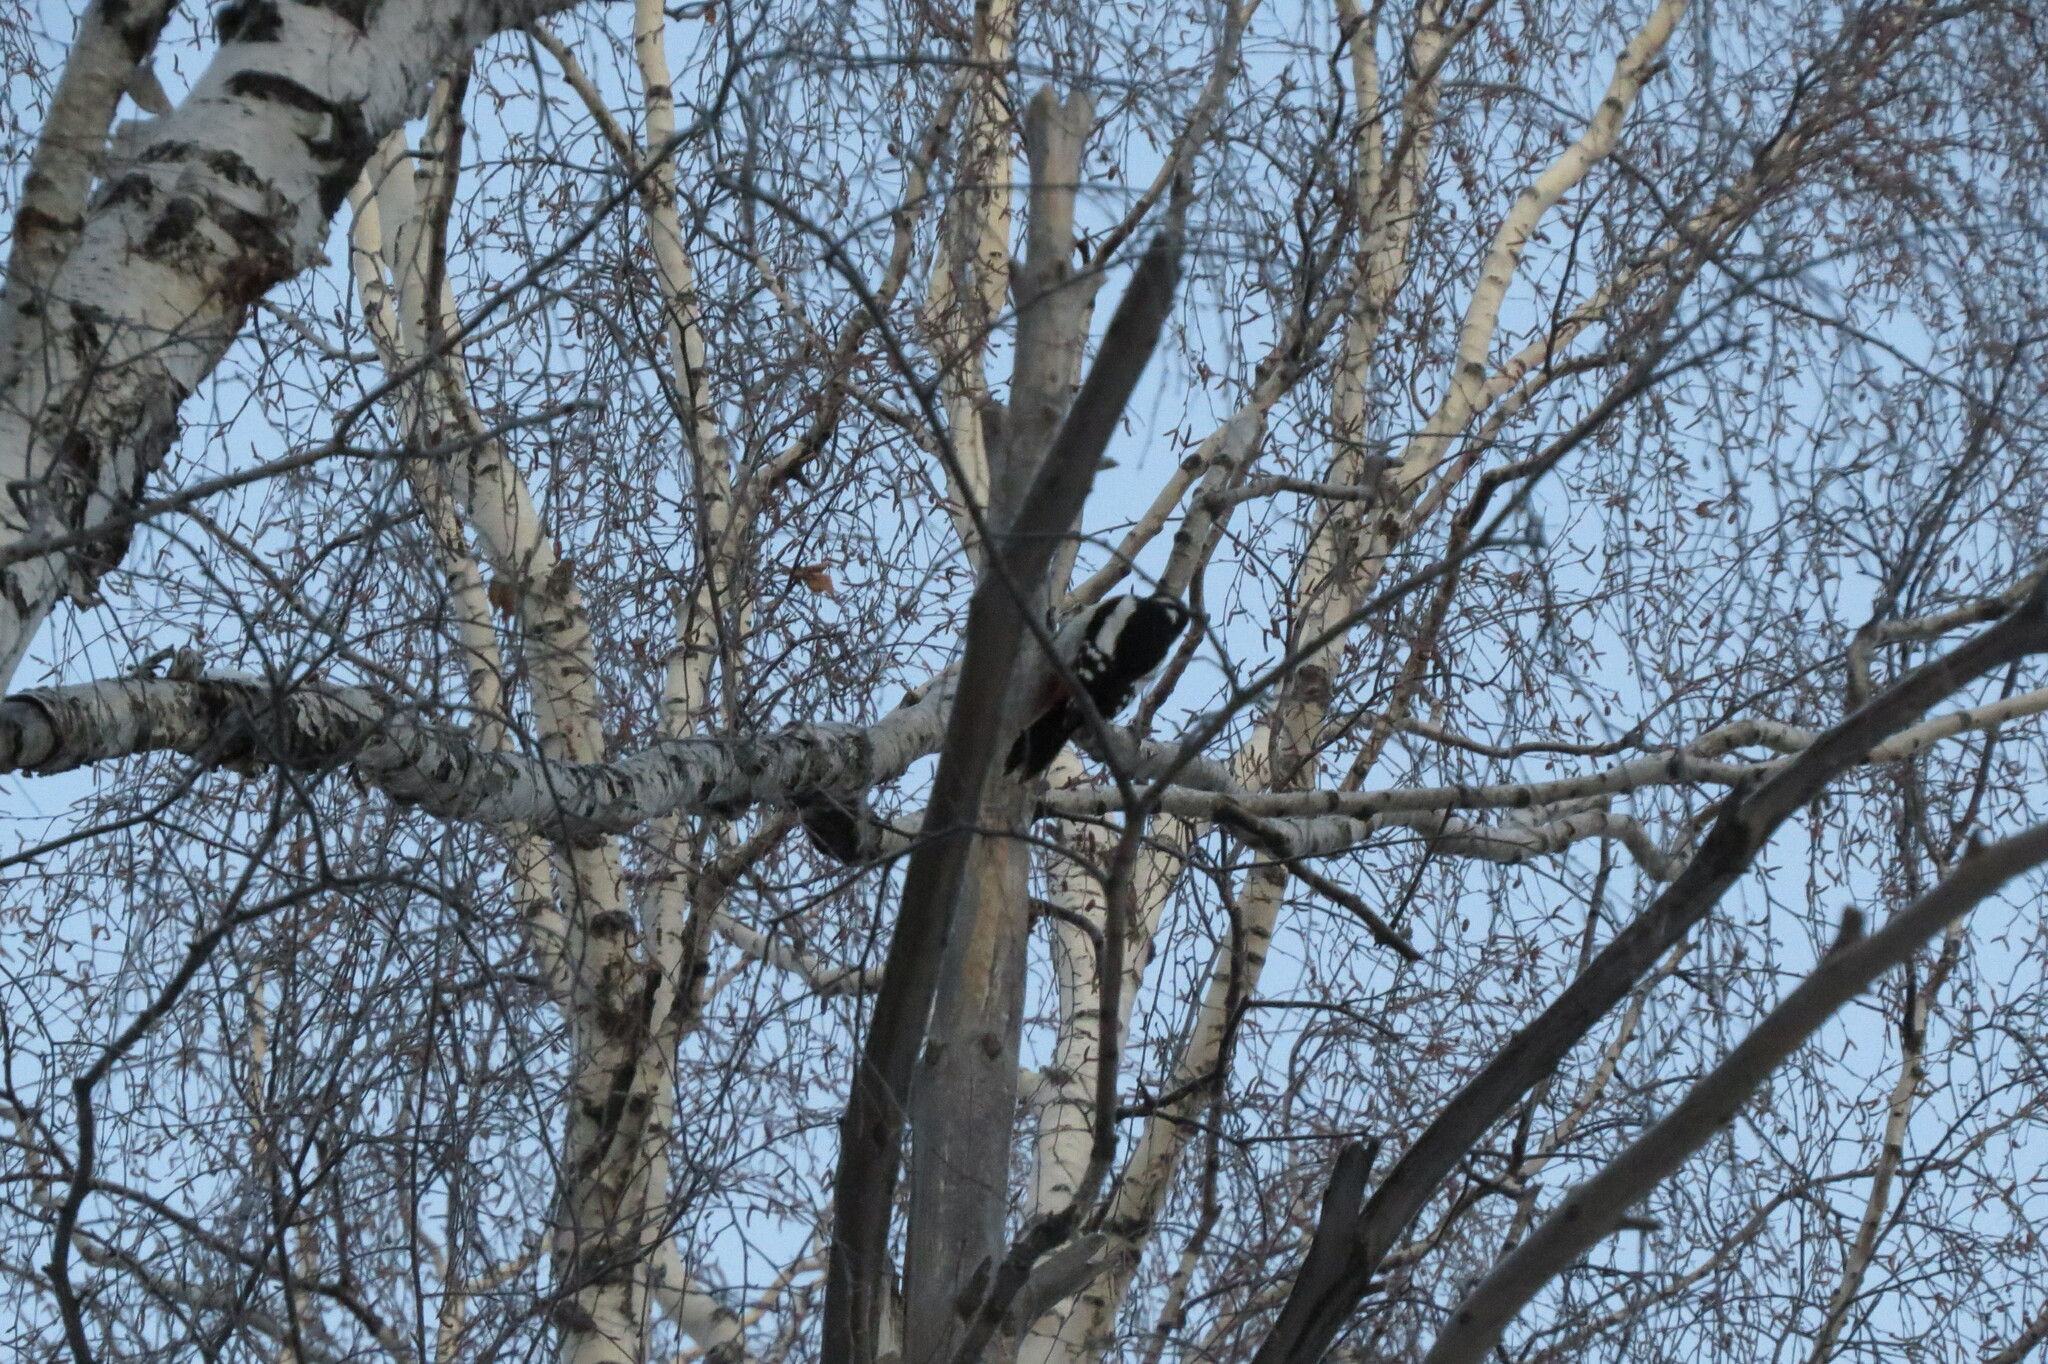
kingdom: Animalia
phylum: Chordata
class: Aves
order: Piciformes
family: Picidae
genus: Dendrocopos
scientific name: Dendrocopos major
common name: Great spotted woodpecker
